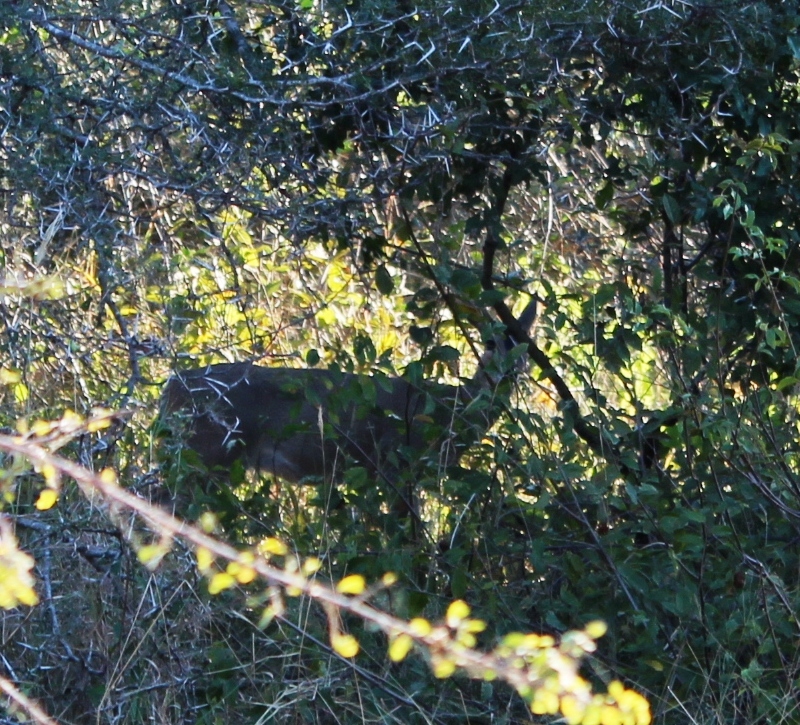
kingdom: Animalia
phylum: Chordata
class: Mammalia
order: Artiodactyla
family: Bovidae
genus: Sylvicapra
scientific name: Sylvicapra grimmia
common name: Bush duiker
